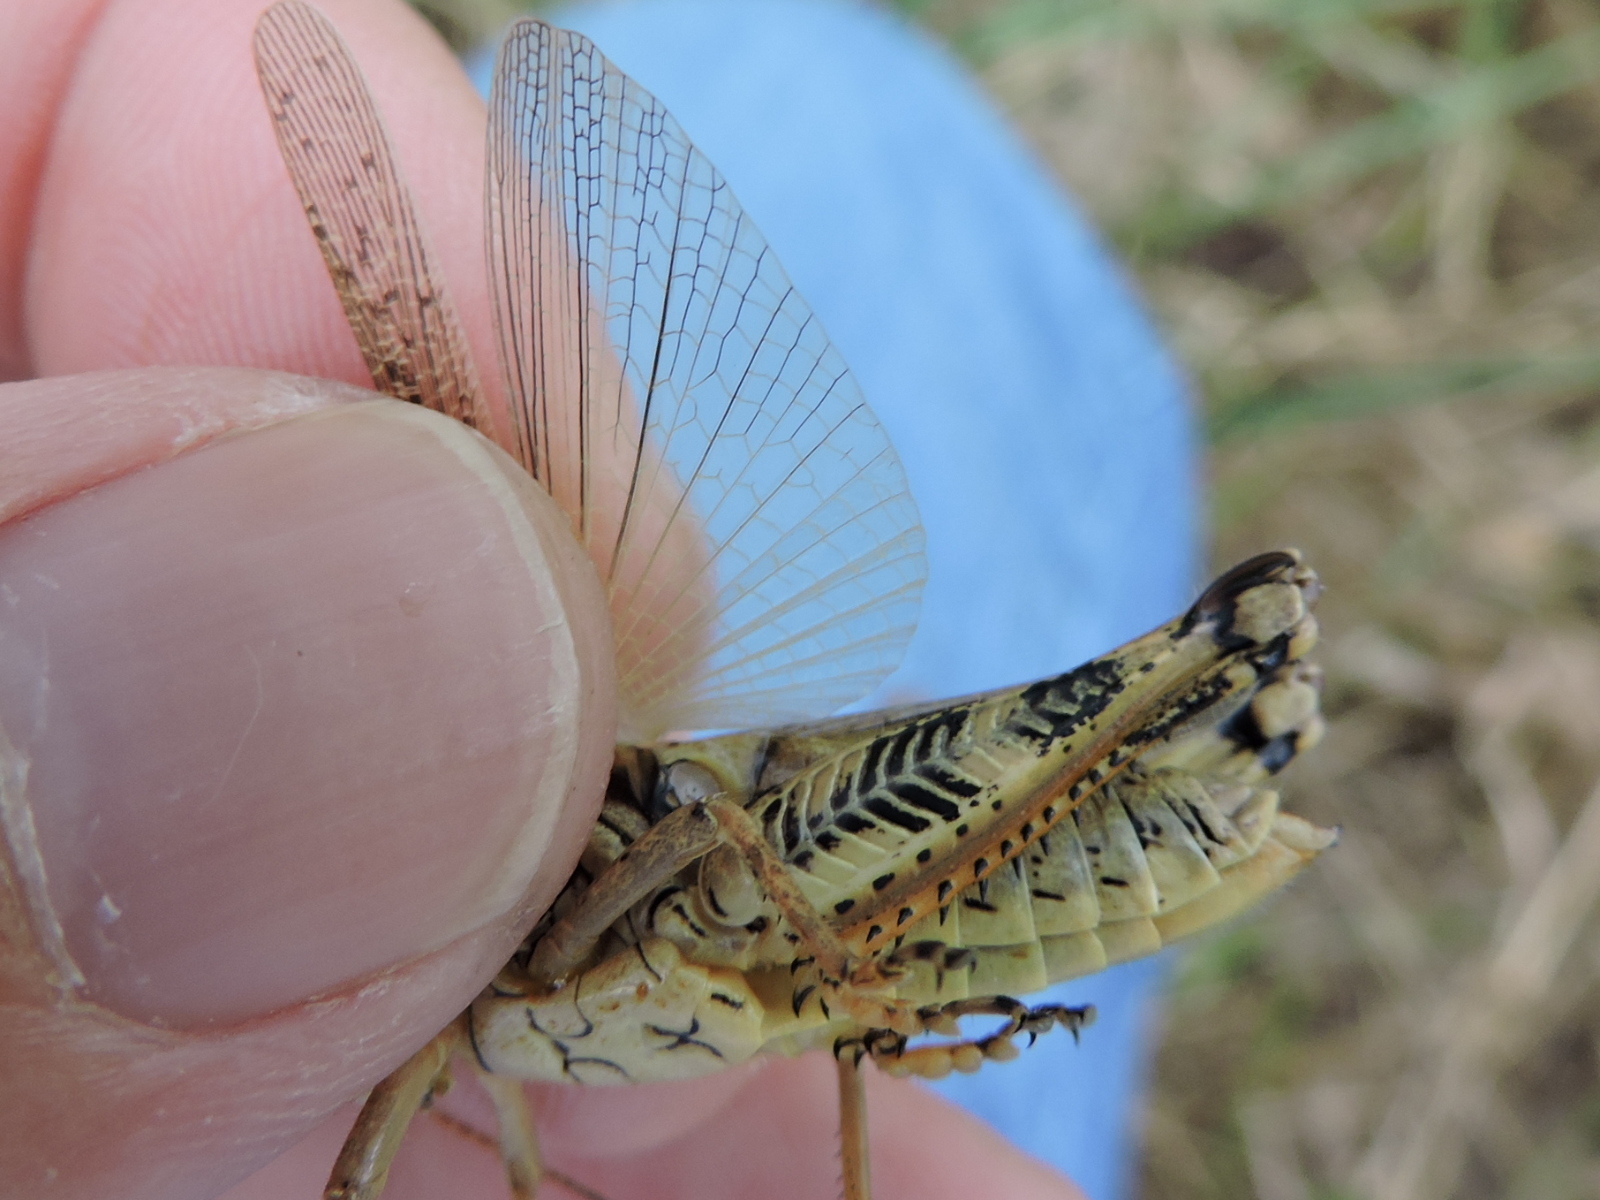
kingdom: Animalia
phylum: Arthropoda
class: Insecta
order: Orthoptera
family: Acrididae
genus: Melanoplus
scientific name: Melanoplus ponderosus
